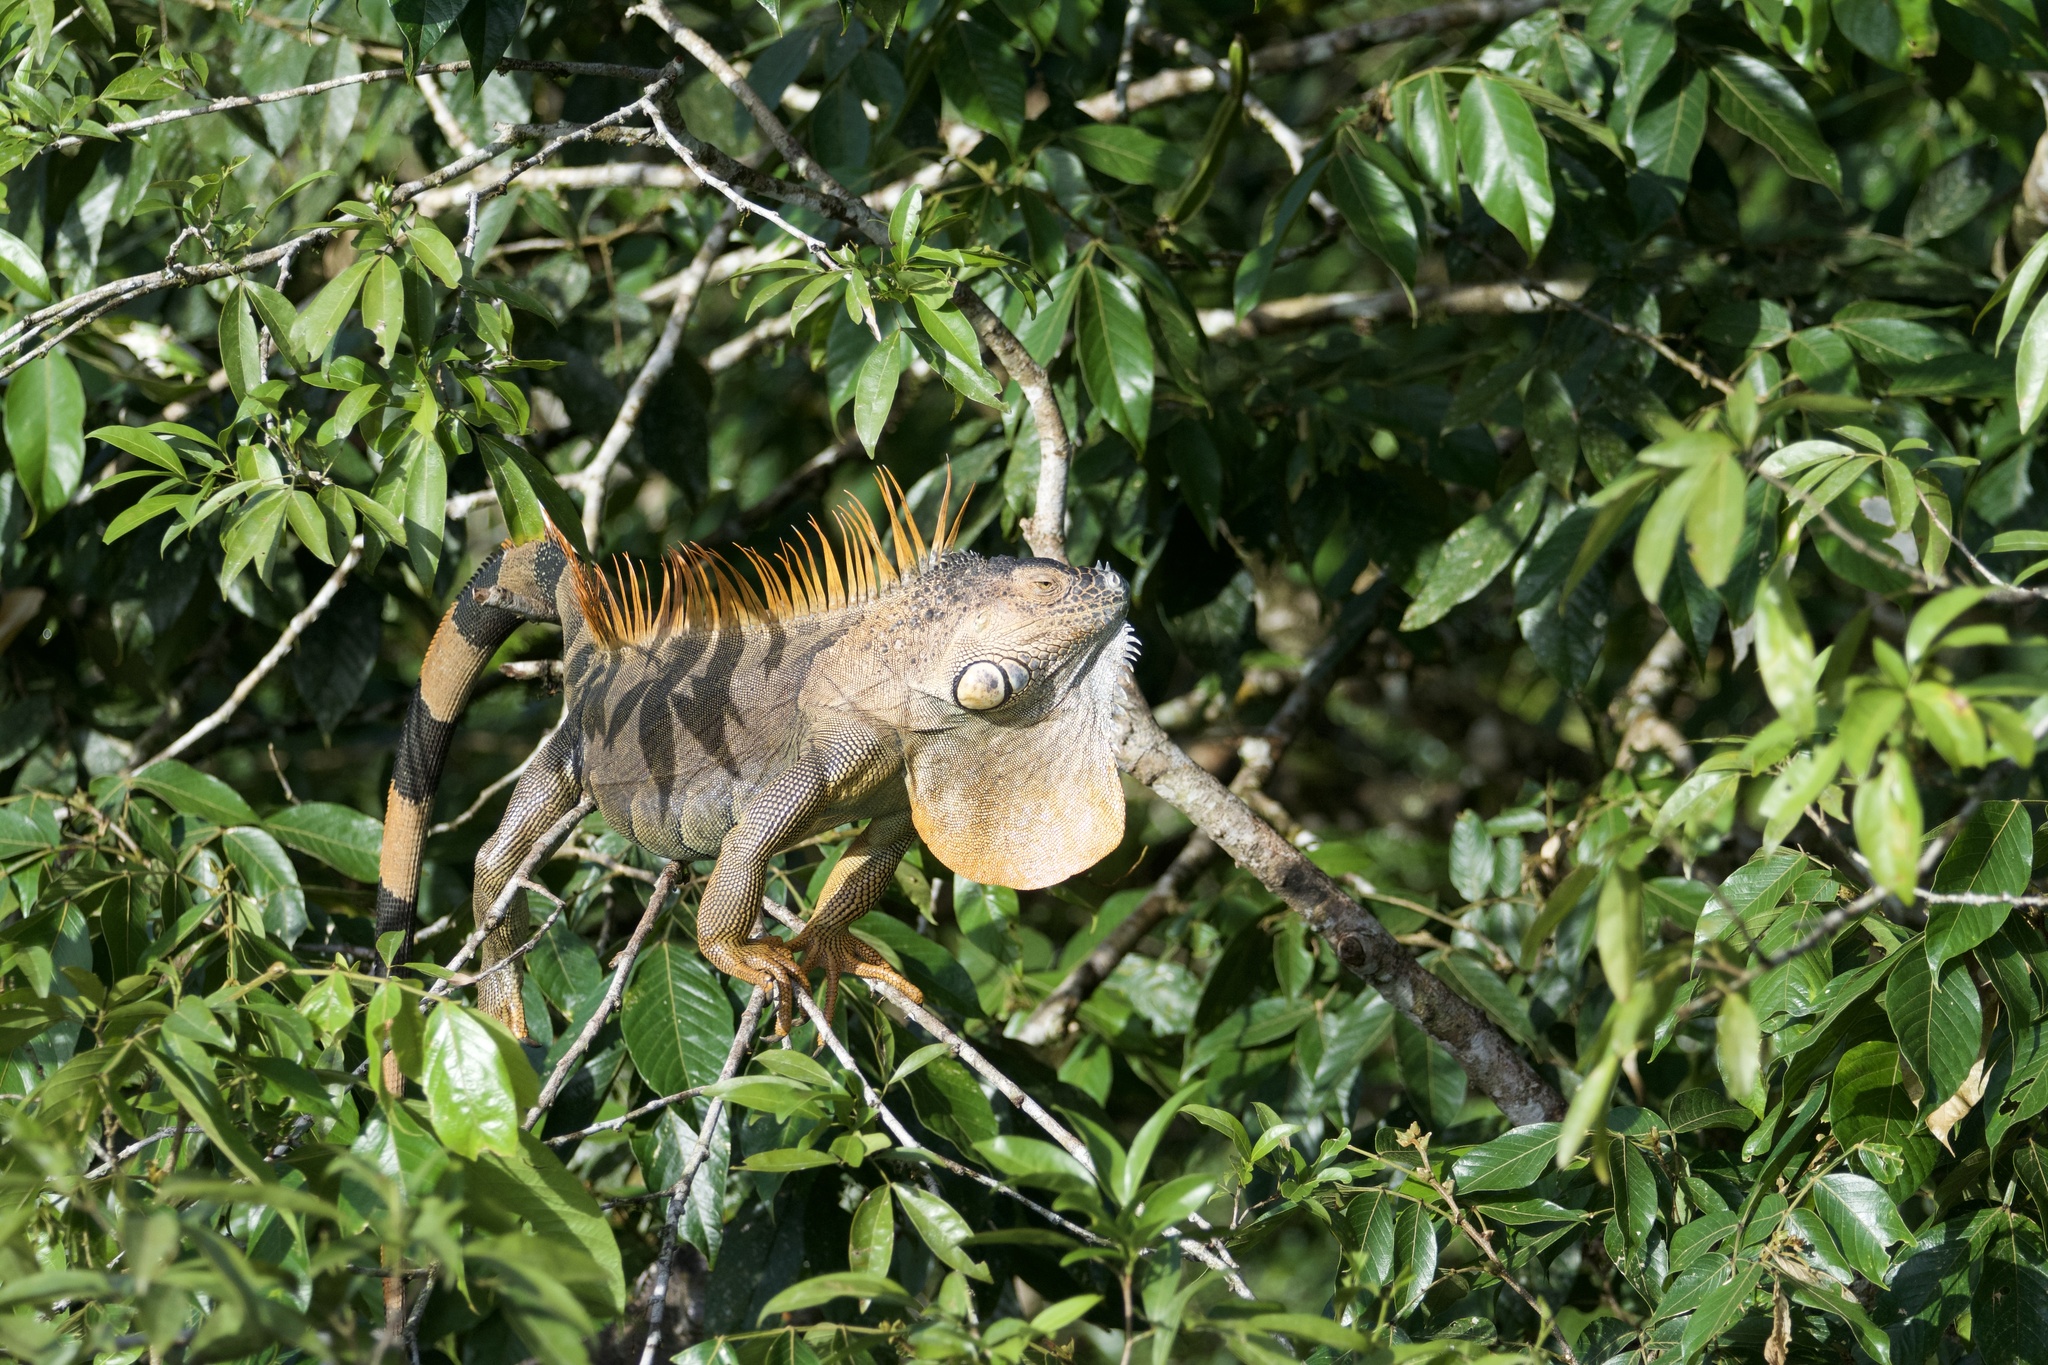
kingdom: Animalia
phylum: Chordata
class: Squamata
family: Iguanidae
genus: Iguana
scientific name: Iguana iguana
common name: Green iguana
